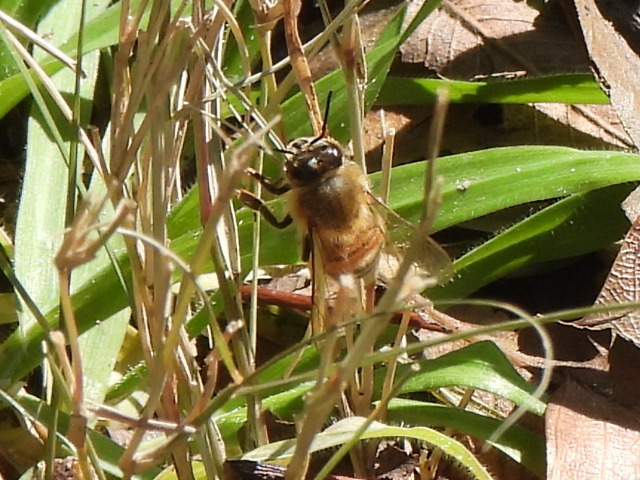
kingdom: Animalia
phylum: Arthropoda
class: Insecta
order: Hymenoptera
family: Apidae
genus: Apis
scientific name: Apis mellifera
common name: Honey bee
